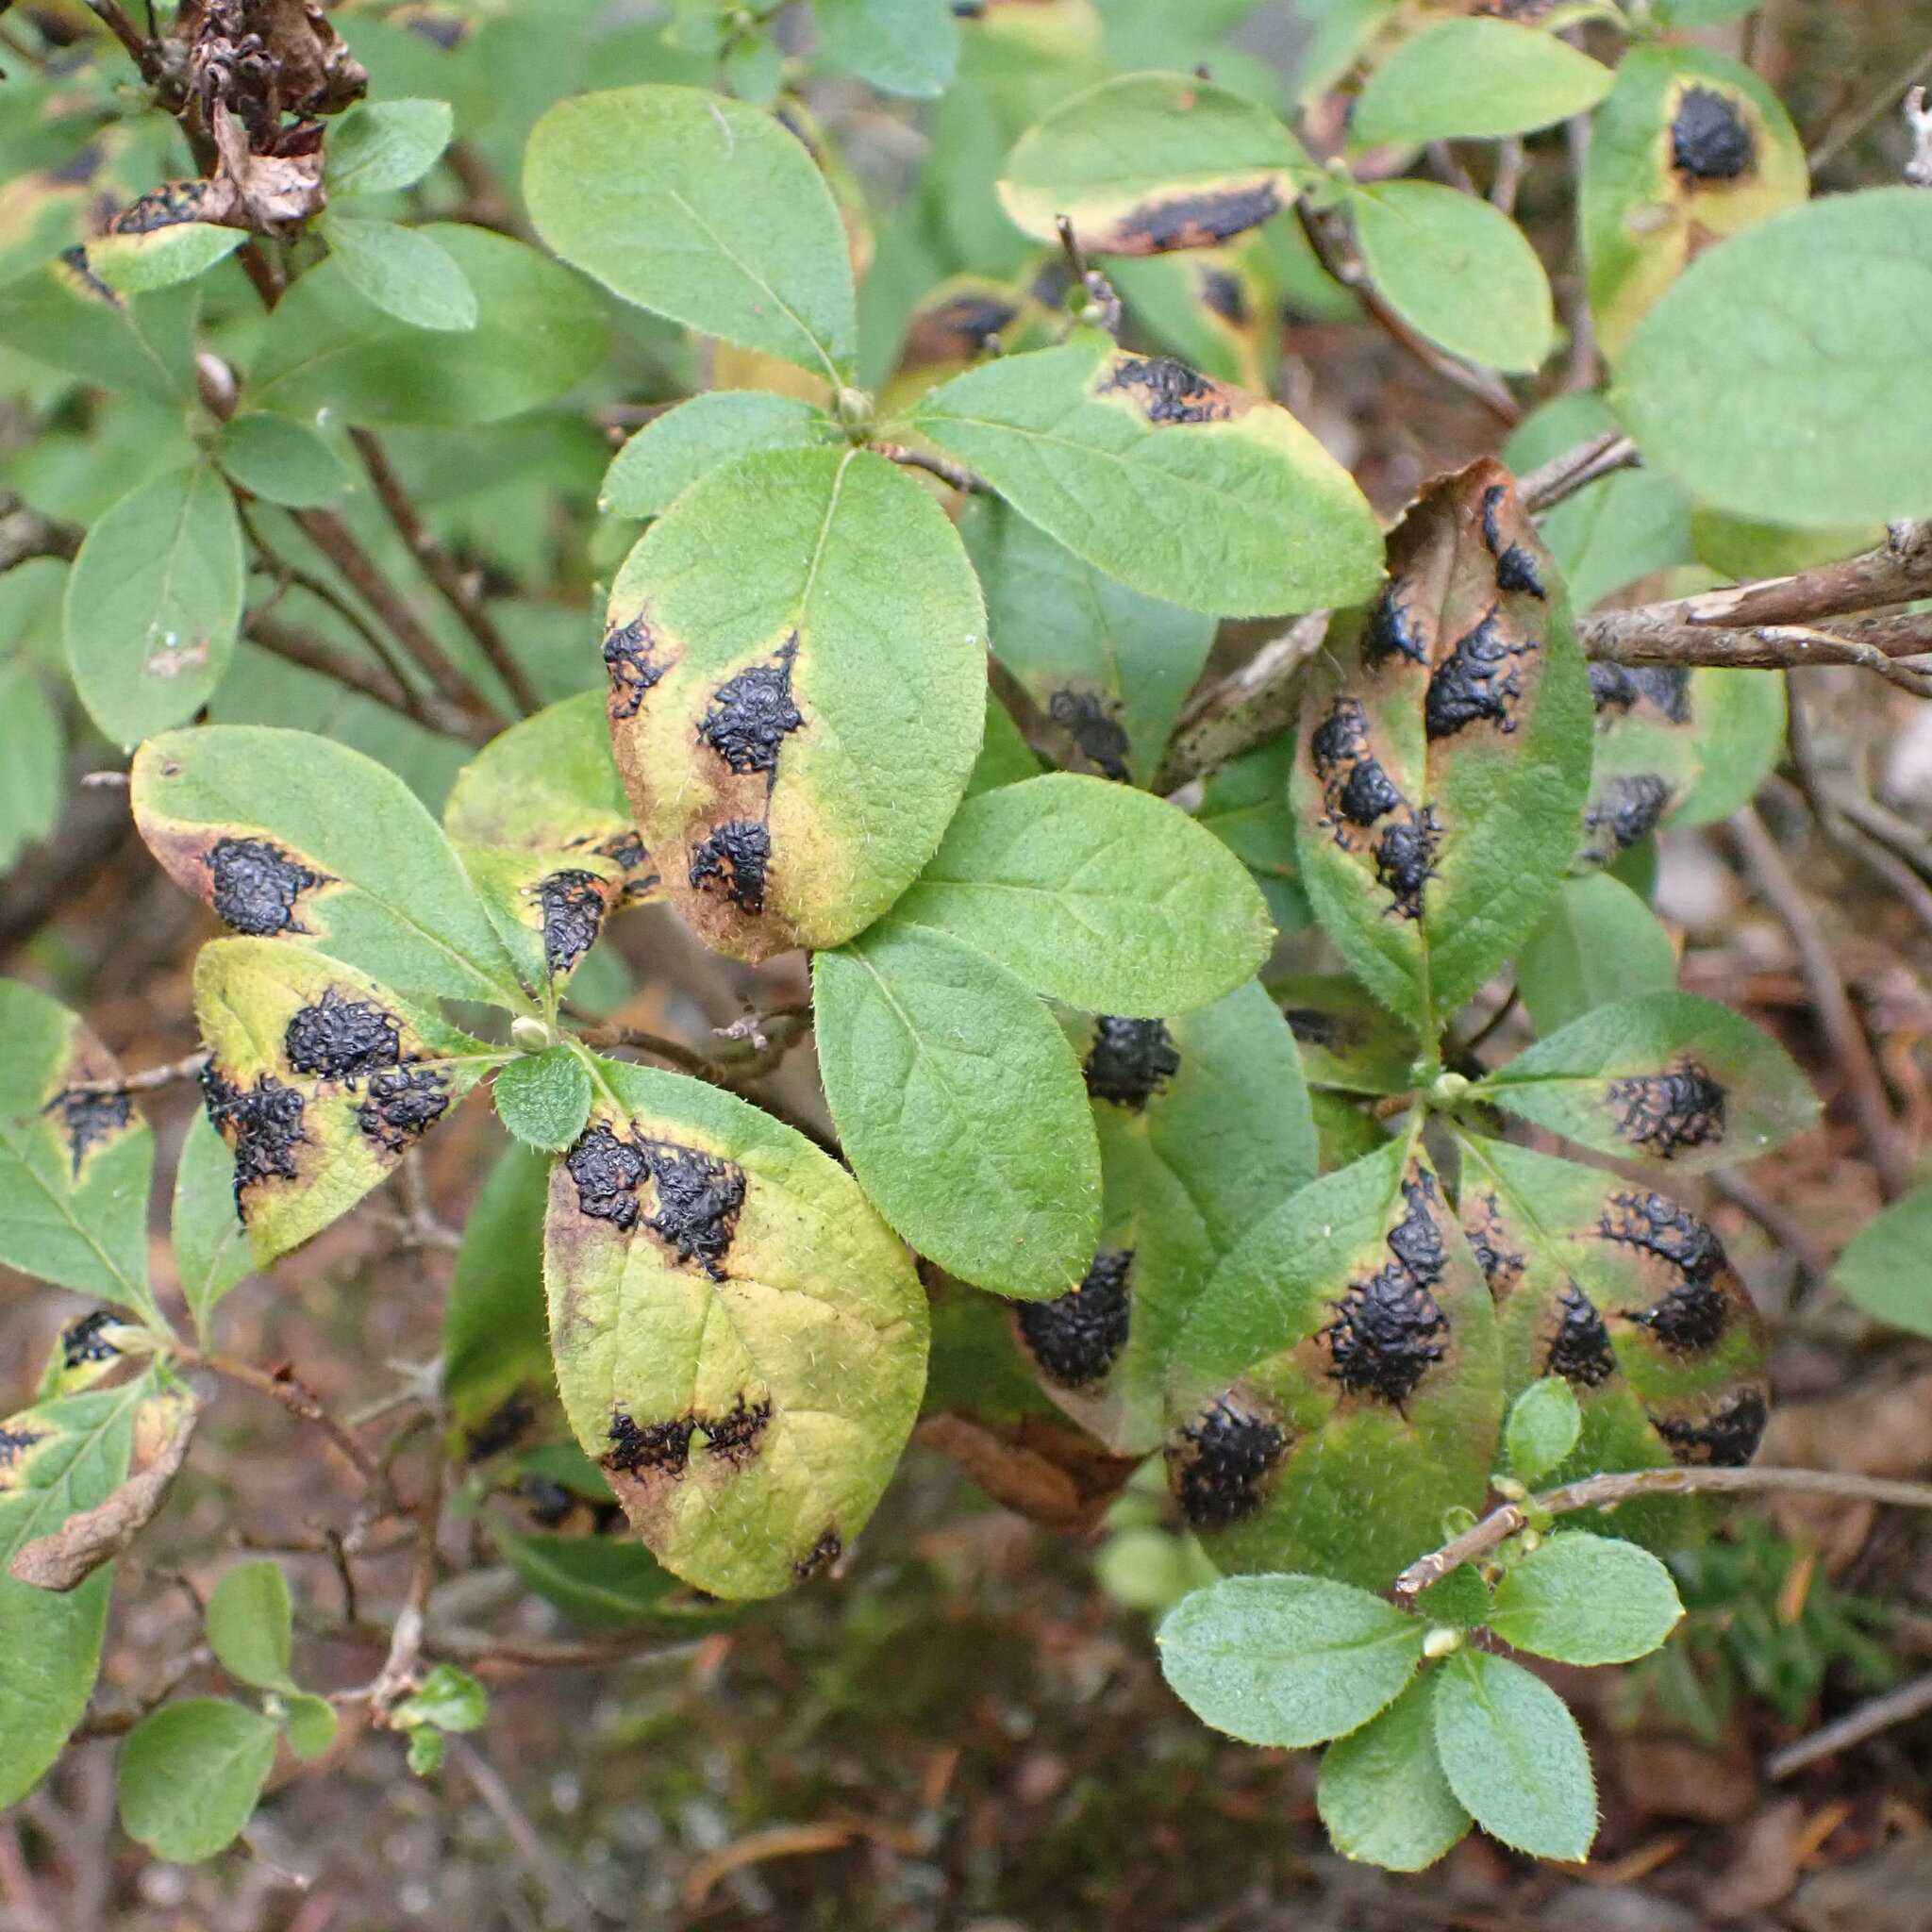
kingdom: Fungi
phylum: Ascomycota
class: Leotiomycetes
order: Rhytismatales
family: Rhytismataceae
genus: Rhytisma
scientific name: Rhytisma
